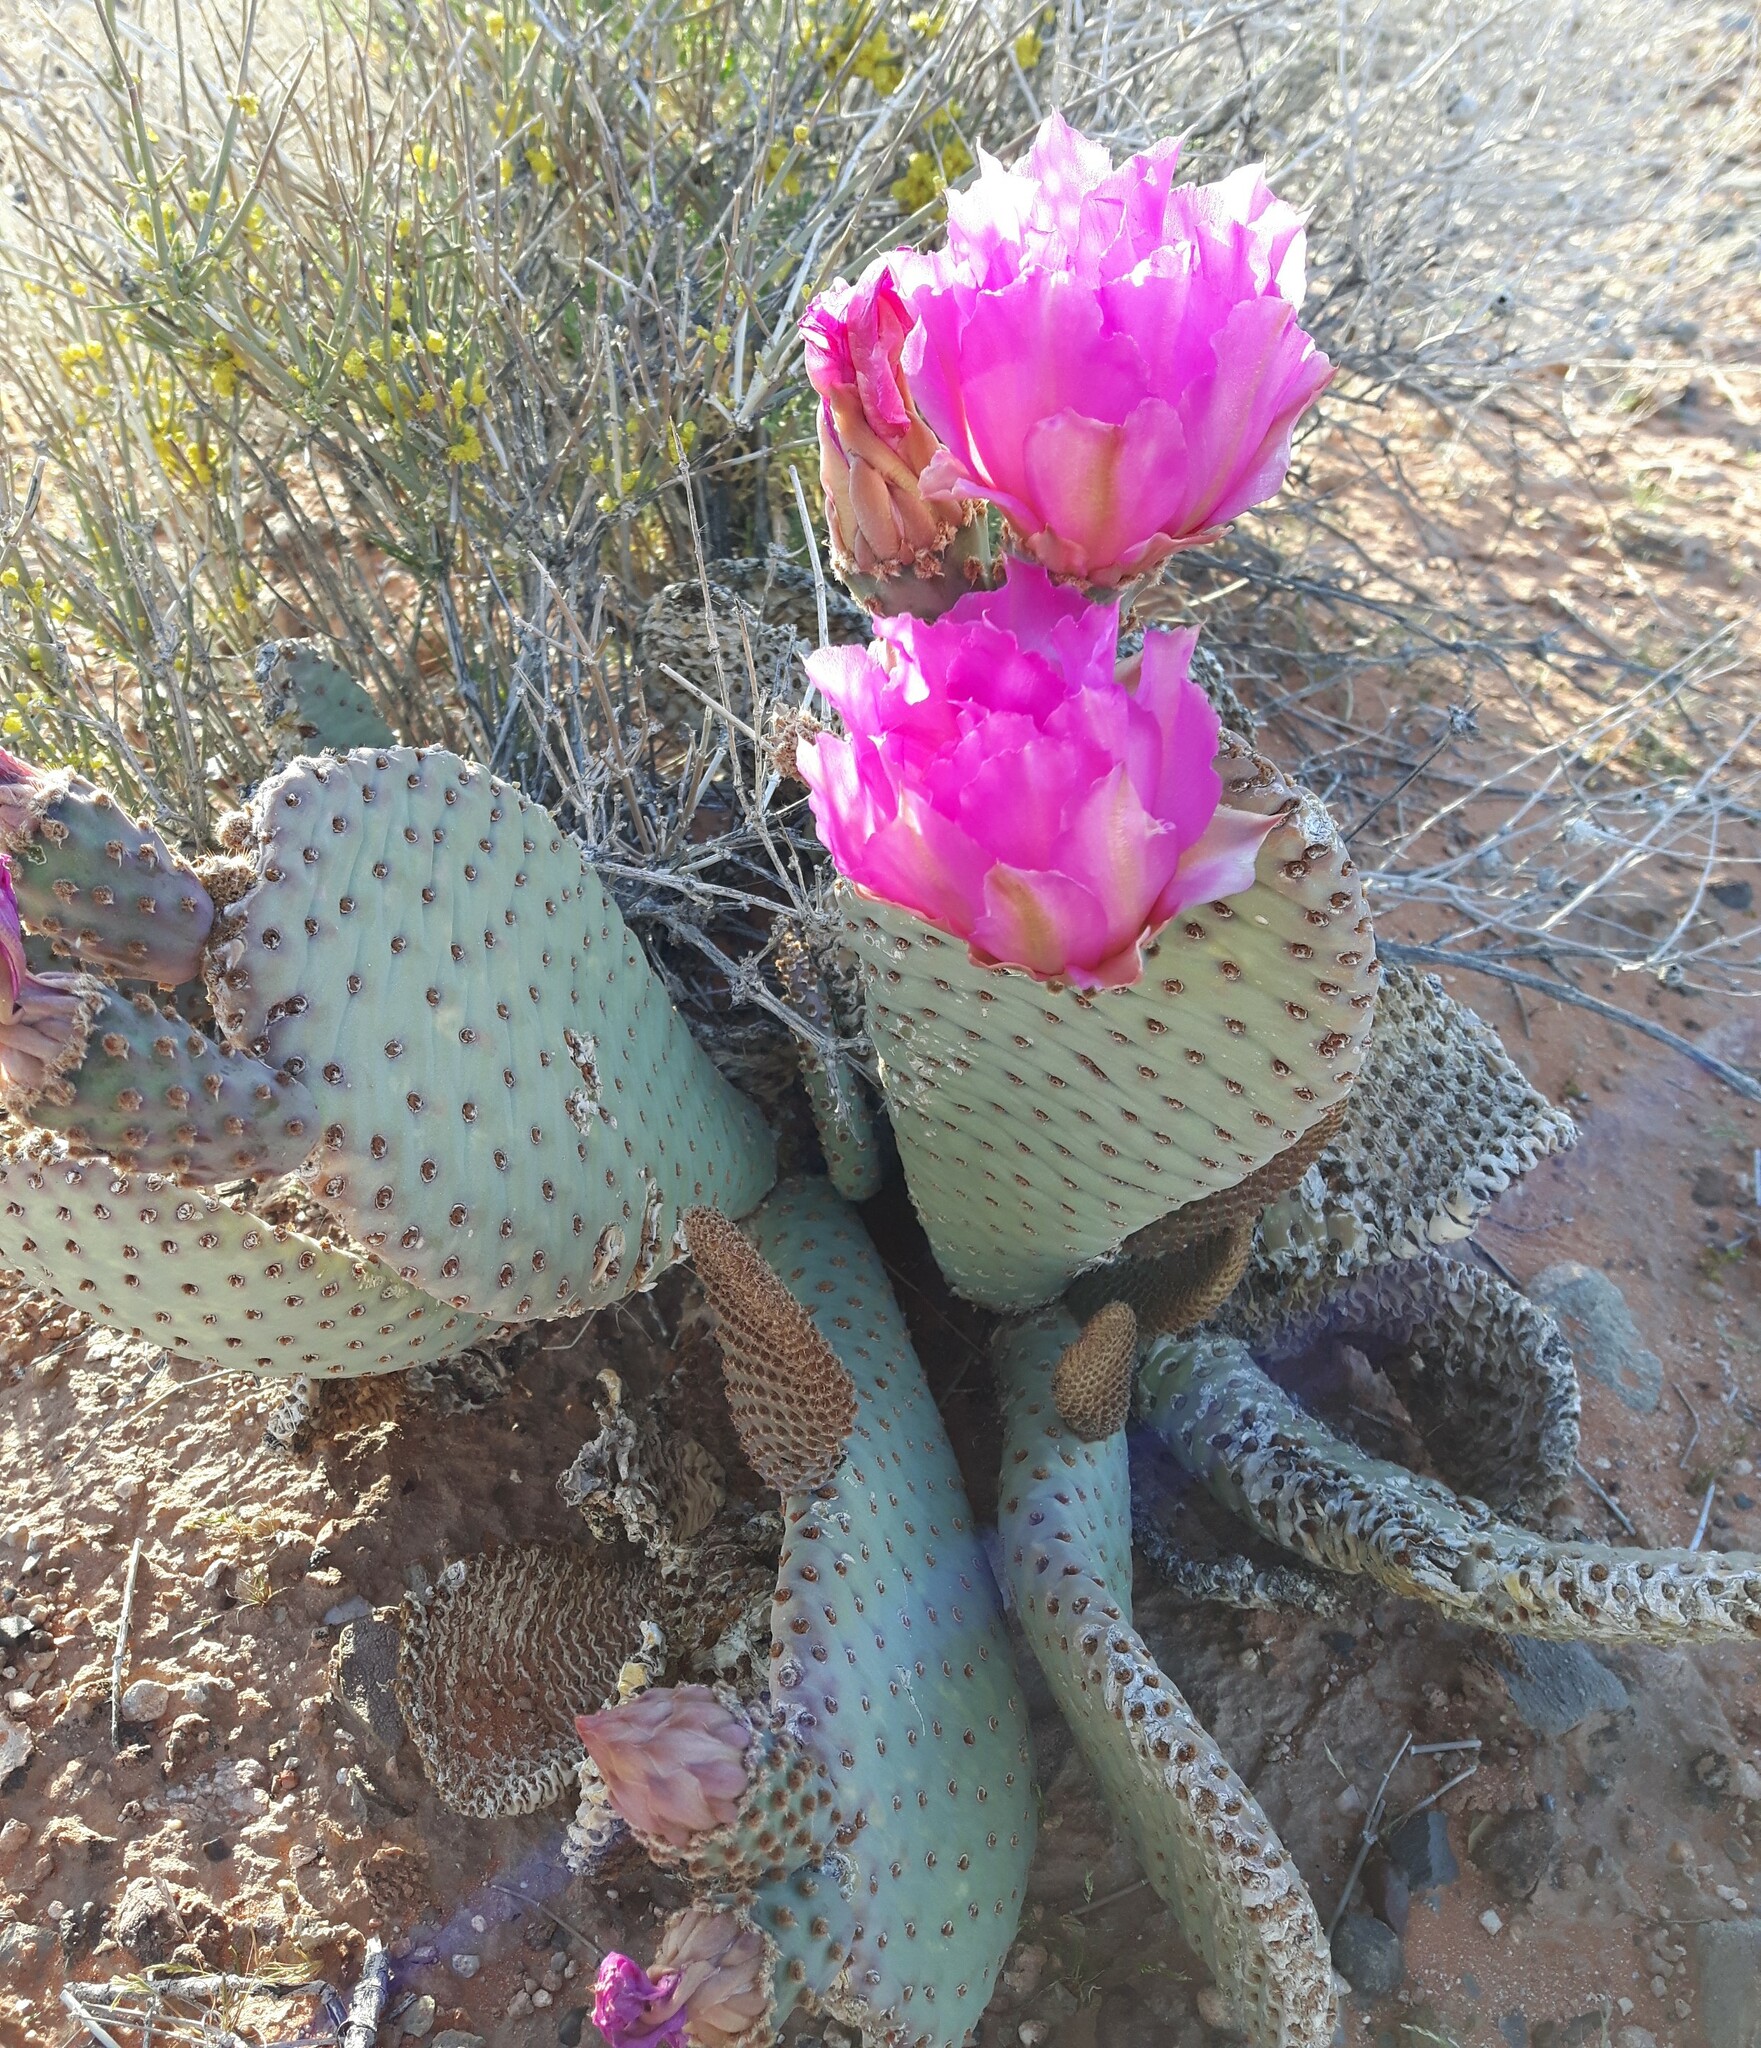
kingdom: Plantae
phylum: Tracheophyta
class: Magnoliopsida
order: Caryophyllales
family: Cactaceae
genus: Opuntia
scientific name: Opuntia basilaris
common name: Beavertail prickly-pear
